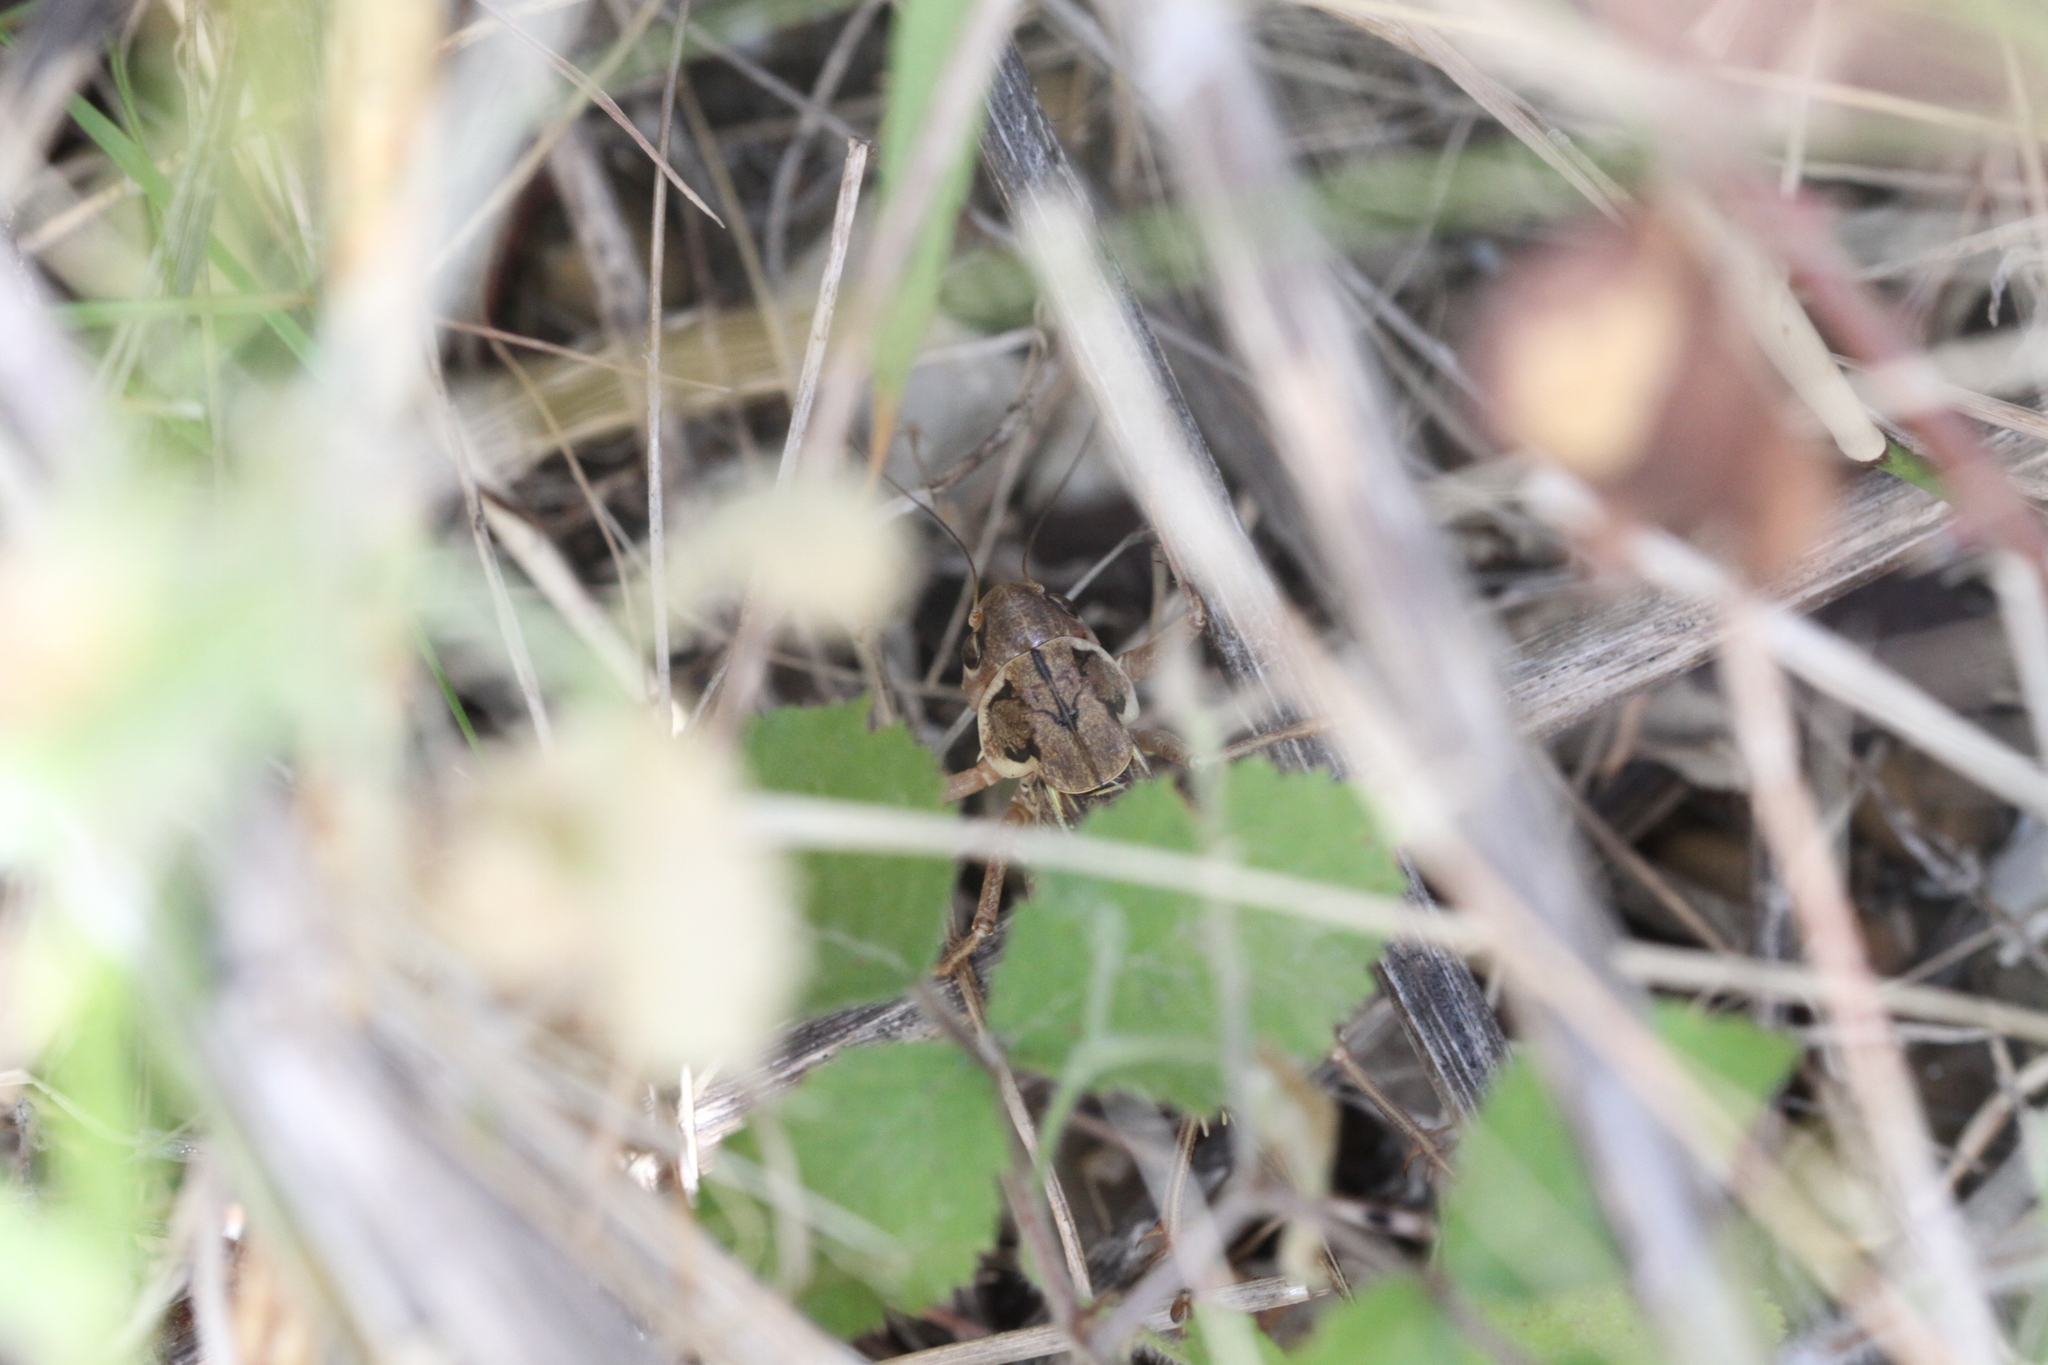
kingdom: Animalia
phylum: Arthropoda
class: Insecta
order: Orthoptera
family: Tettigoniidae
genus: Decticus
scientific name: Decticus albifrons
